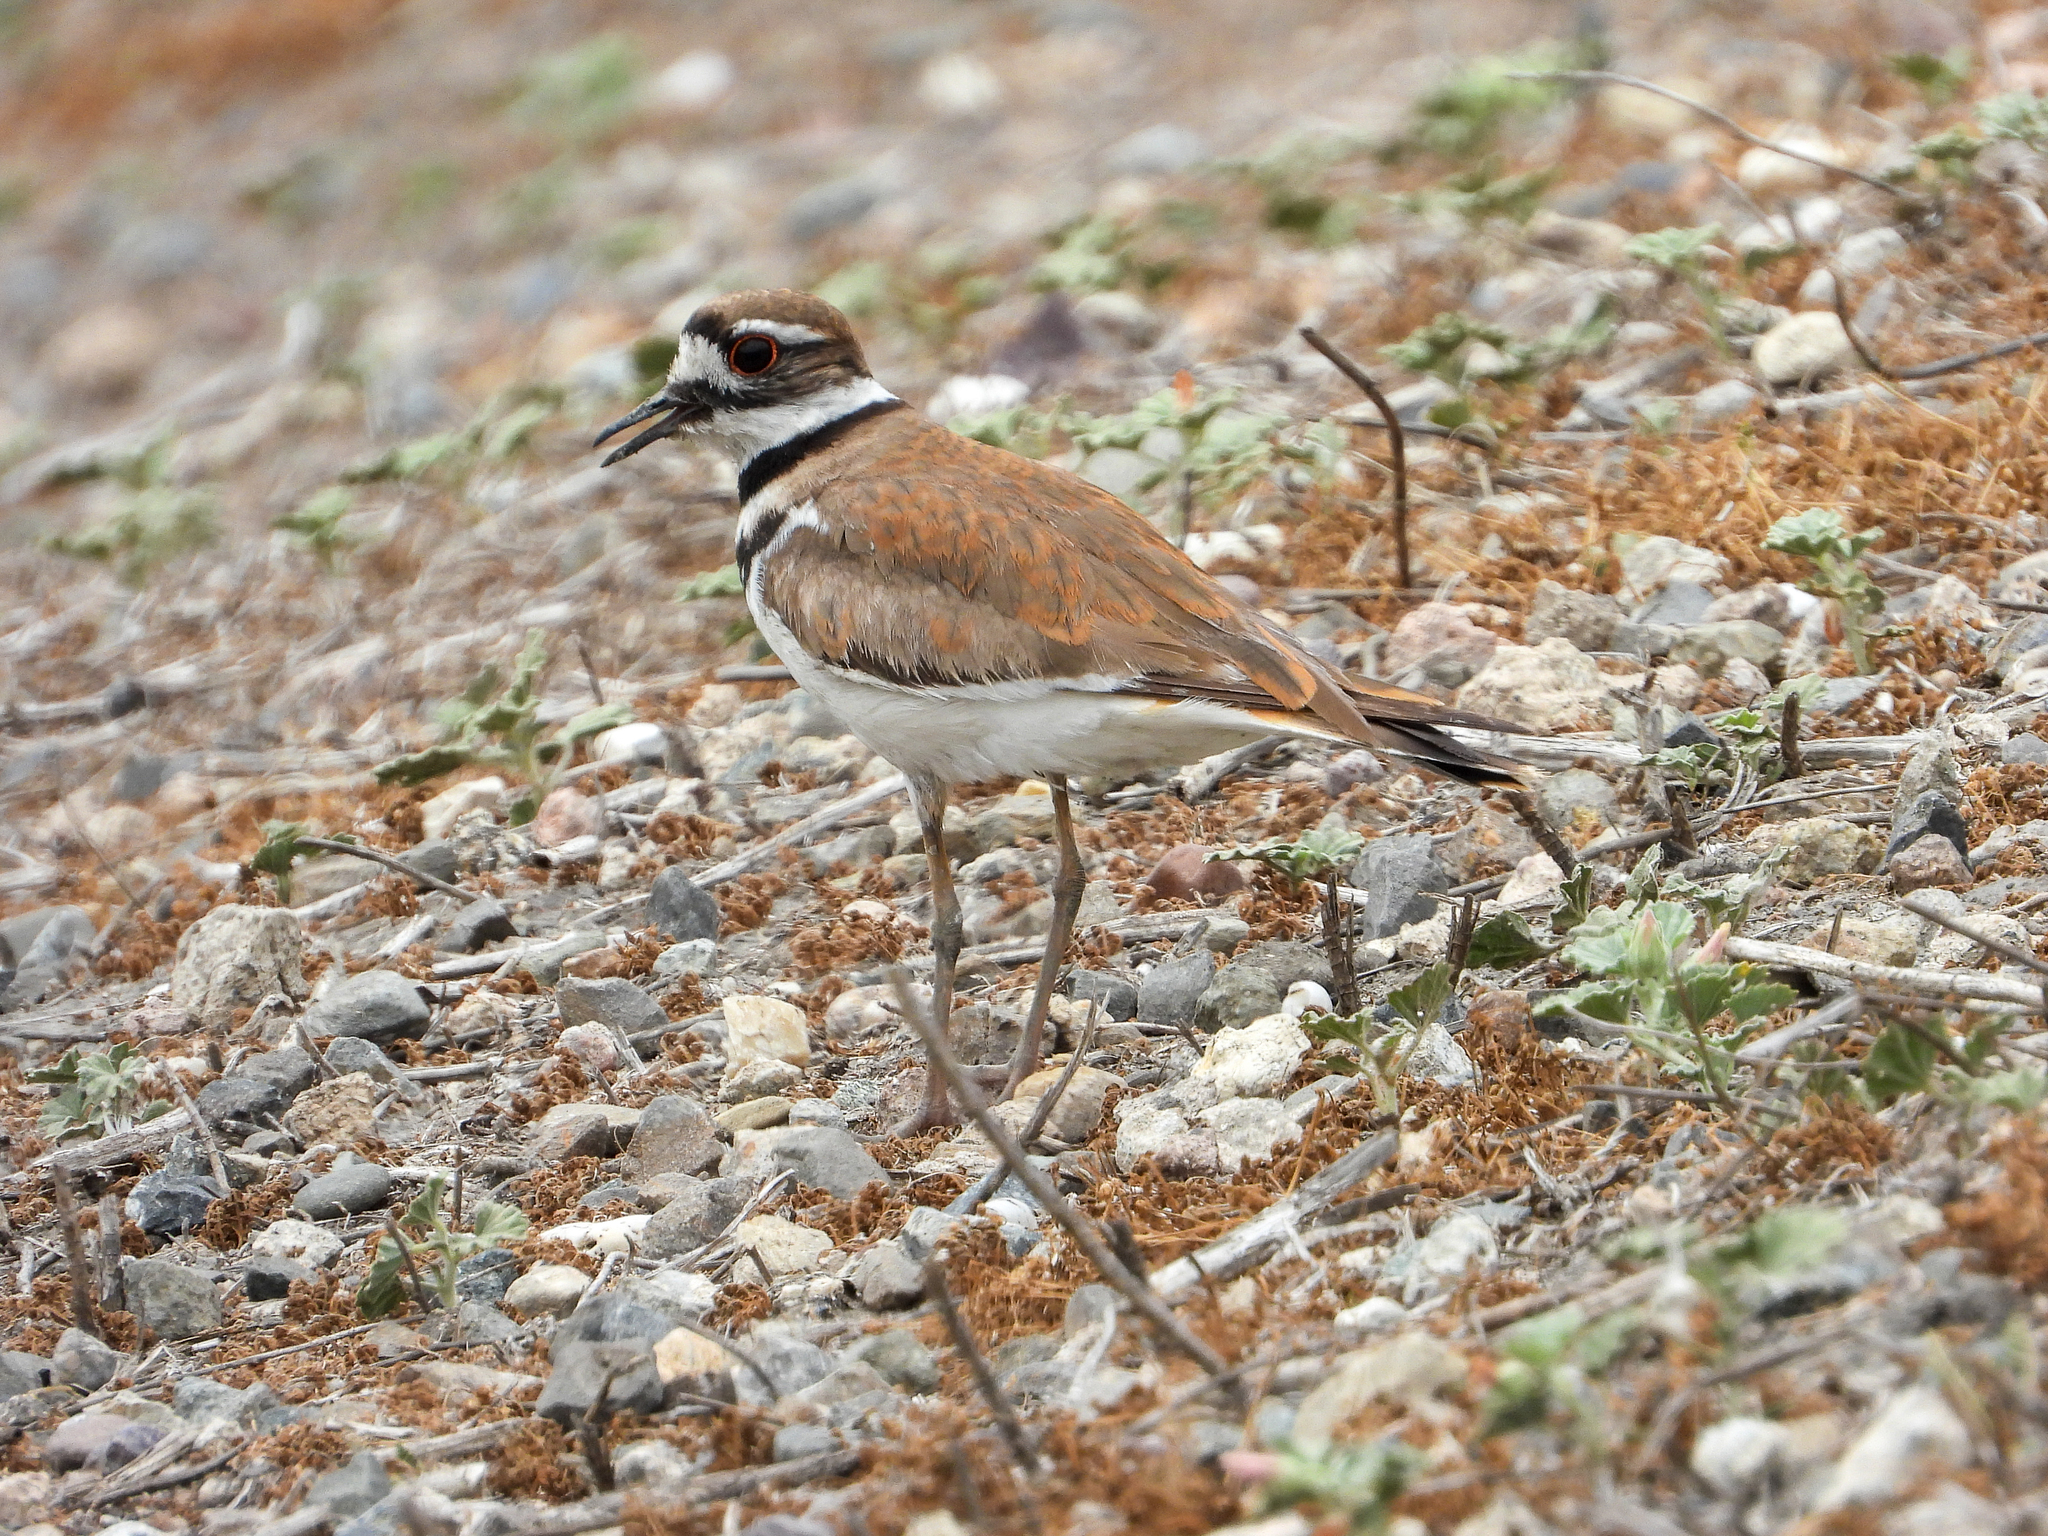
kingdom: Animalia
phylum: Chordata
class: Aves
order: Charadriiformes
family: Charadriidae
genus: Charadrius
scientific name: Charadrius vociferus
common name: Killdeer
